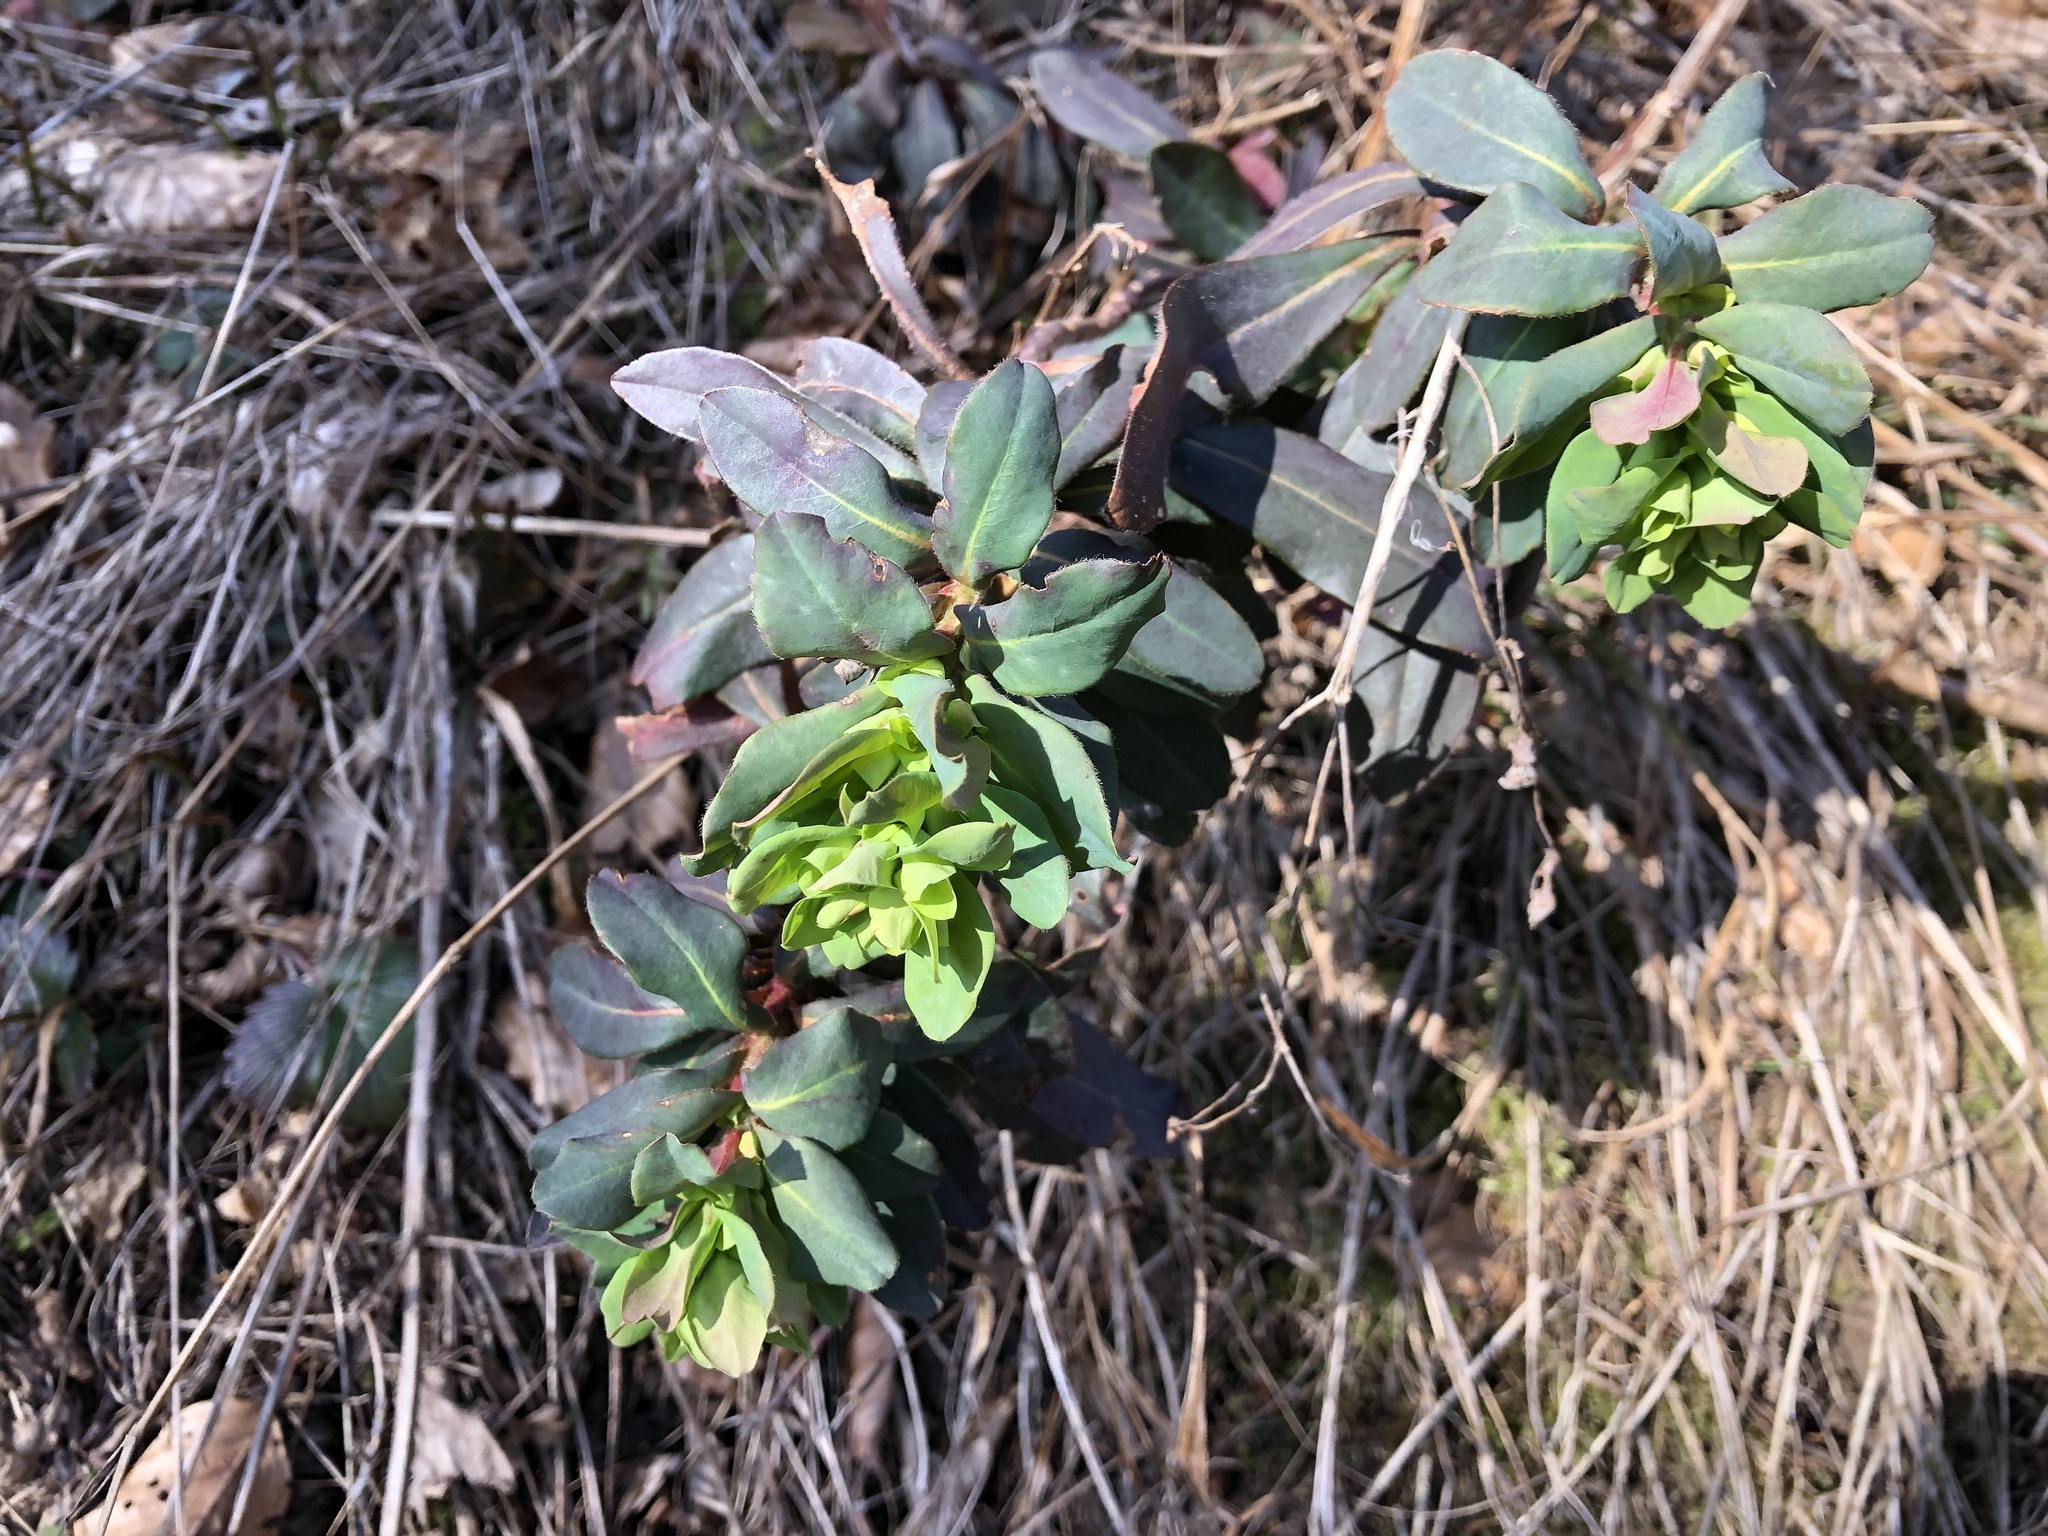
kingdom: Plantae
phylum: Tracheophyta
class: Magnoliopsida
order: Malpighiales
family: Euphorbiaceae
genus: Euphorbia
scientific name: Euphorbia amygdaloides
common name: Wood spurge
